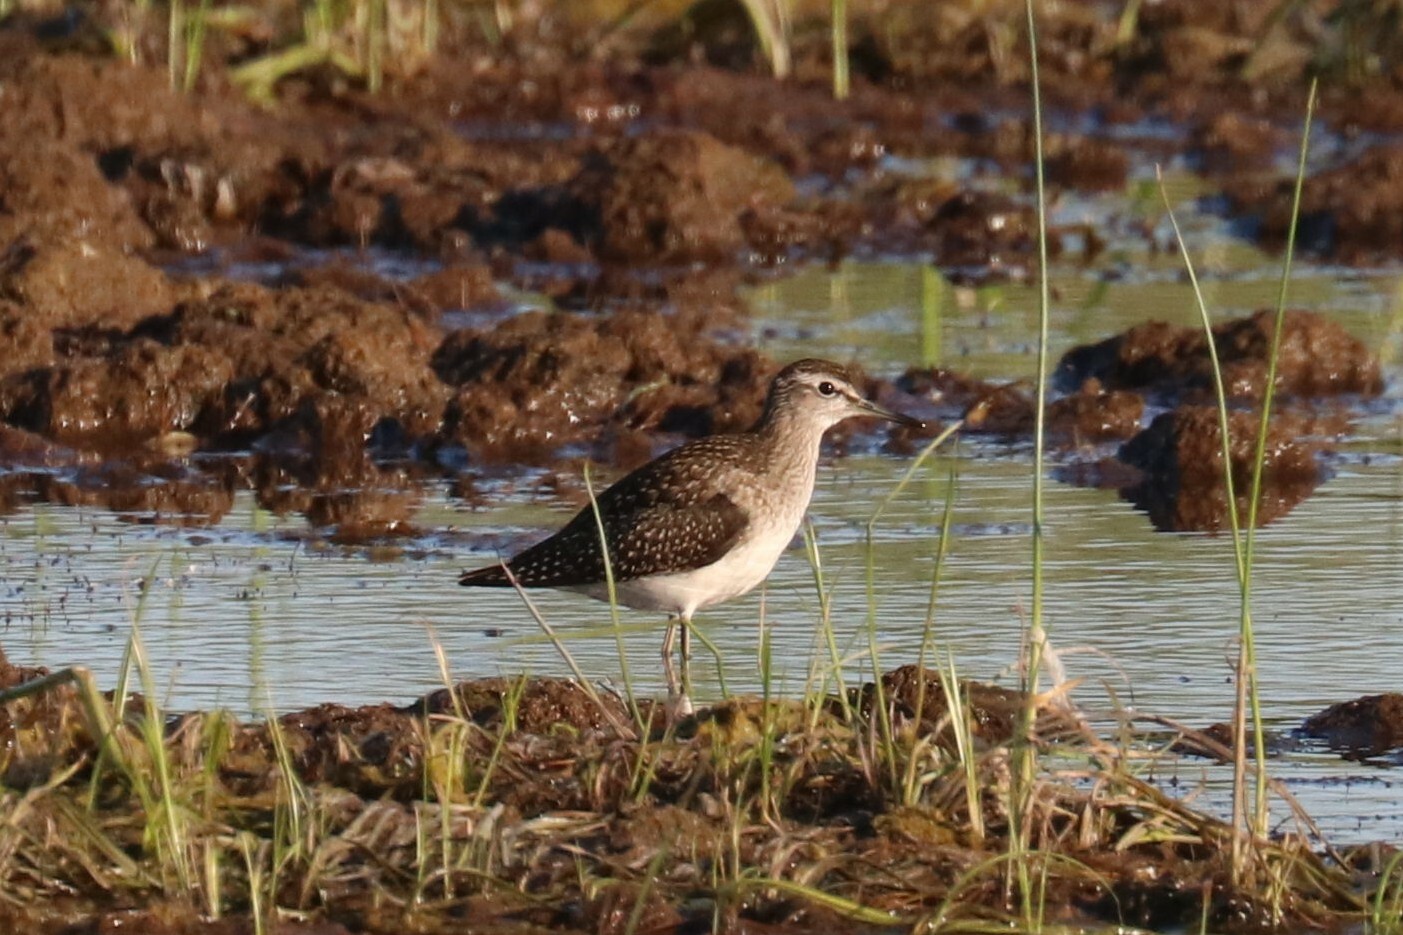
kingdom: Animalia
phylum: Chordata
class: Aves
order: Charadriiformes
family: Scolopacidae
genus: Tringa
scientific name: Tringa glareola
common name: Wood sandpiper
